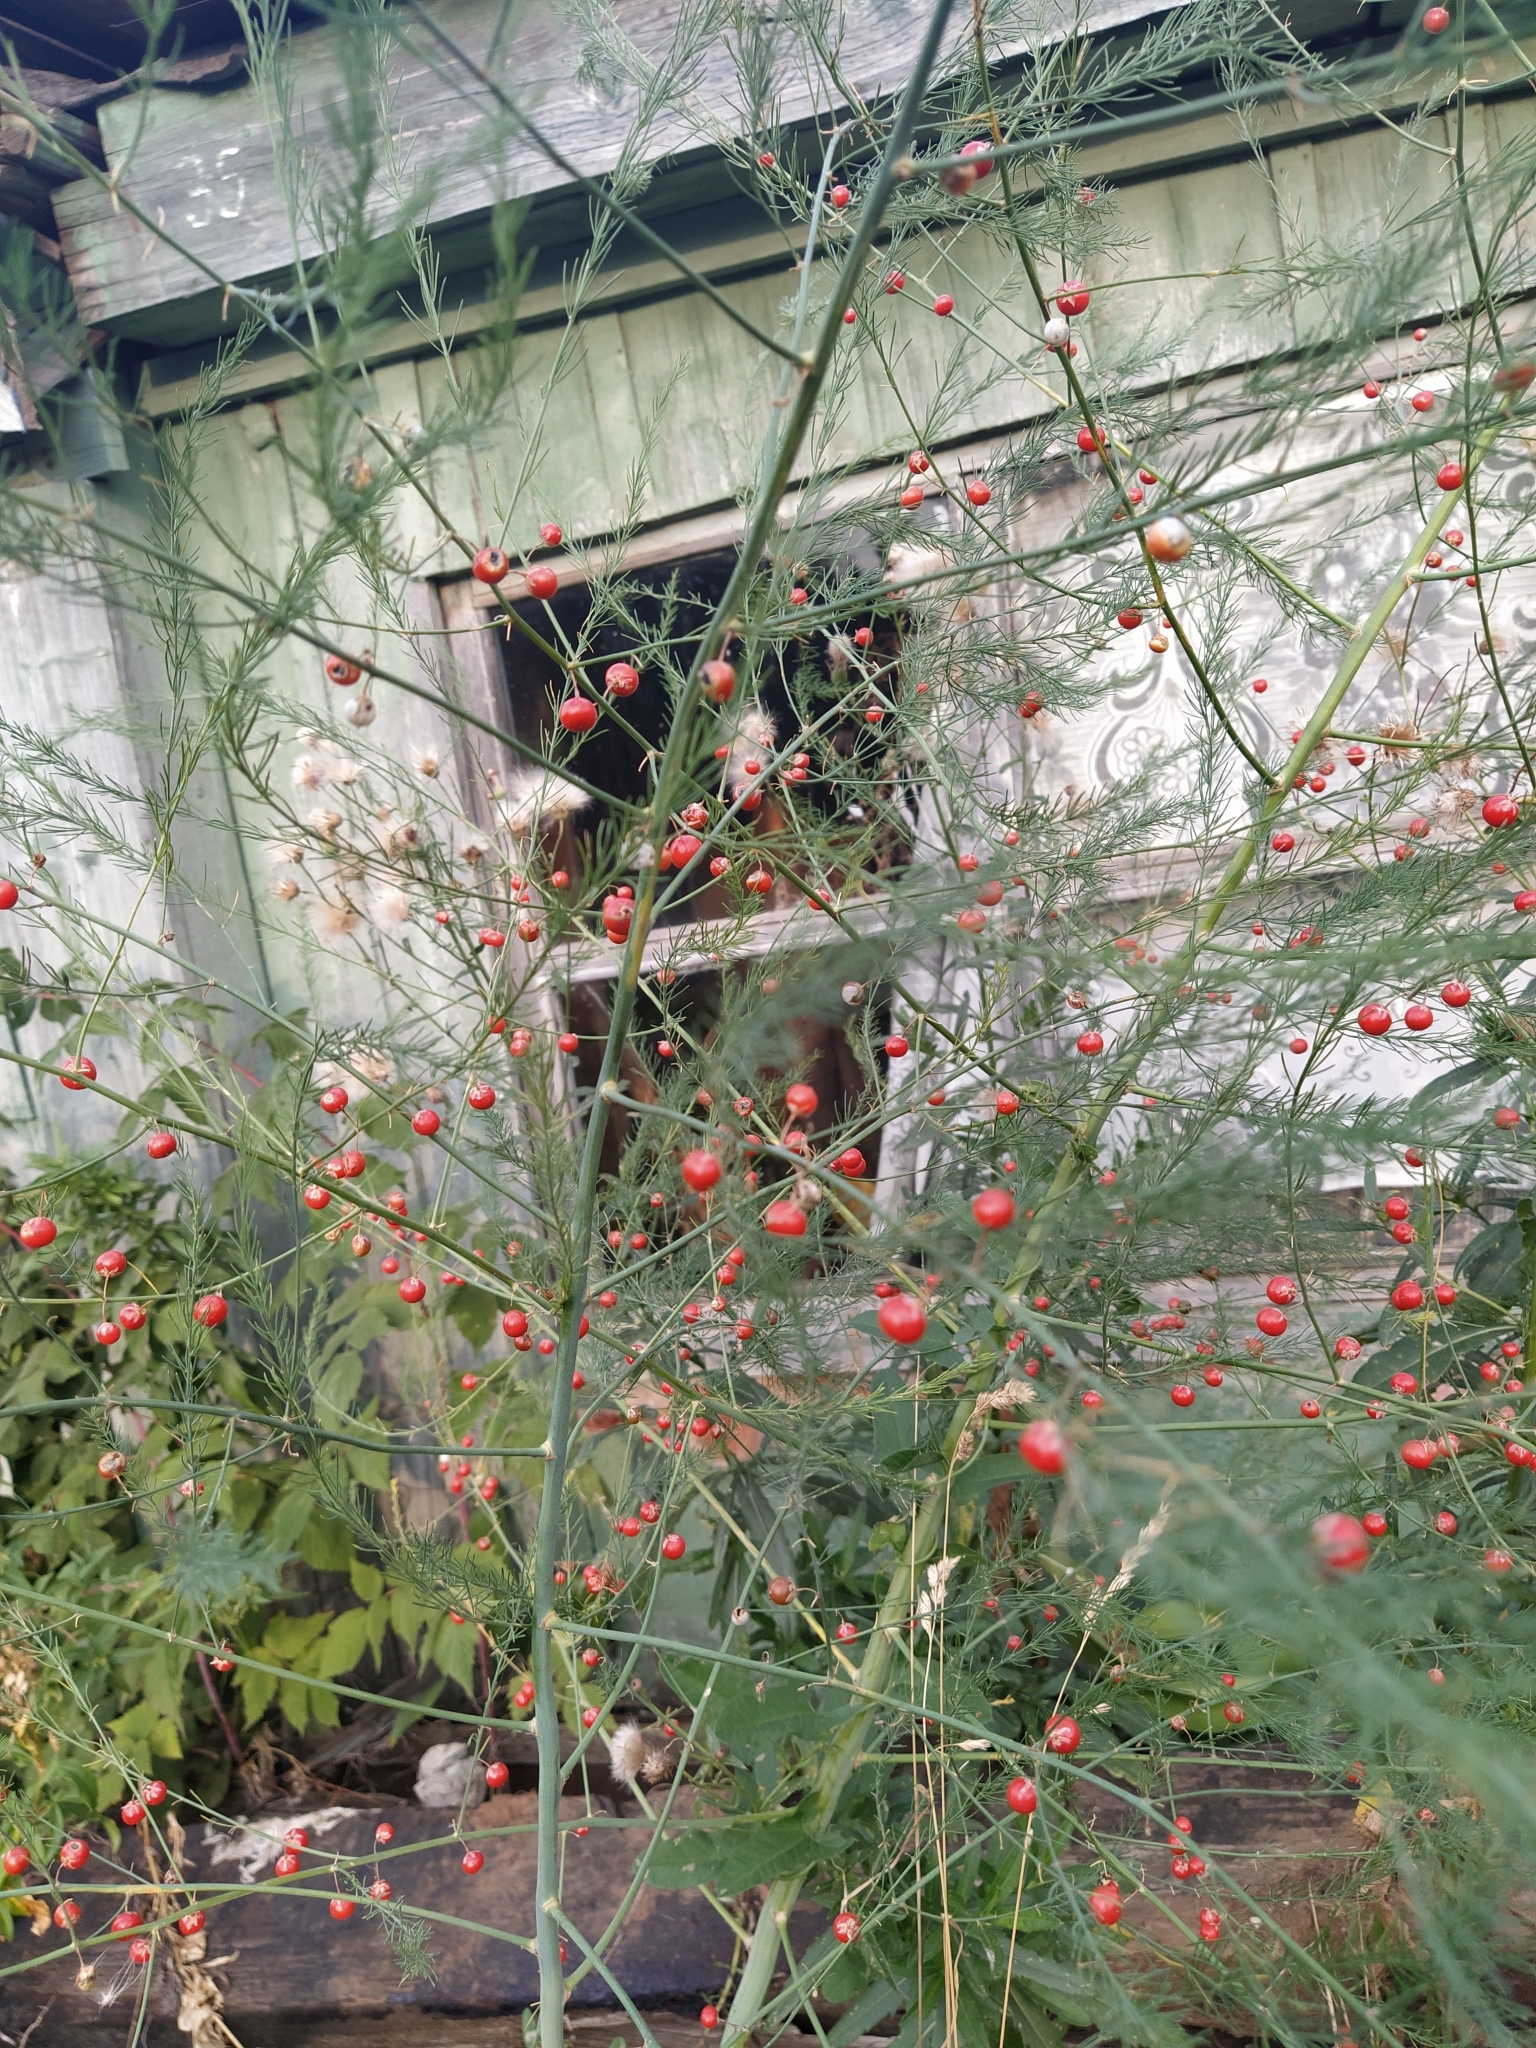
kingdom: Plantae
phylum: Tracheophyta
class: Liliopsida
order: Asparagales
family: Asparagaceae
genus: Asparagus
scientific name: Asparagus officinalis
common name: Garden asparagus
